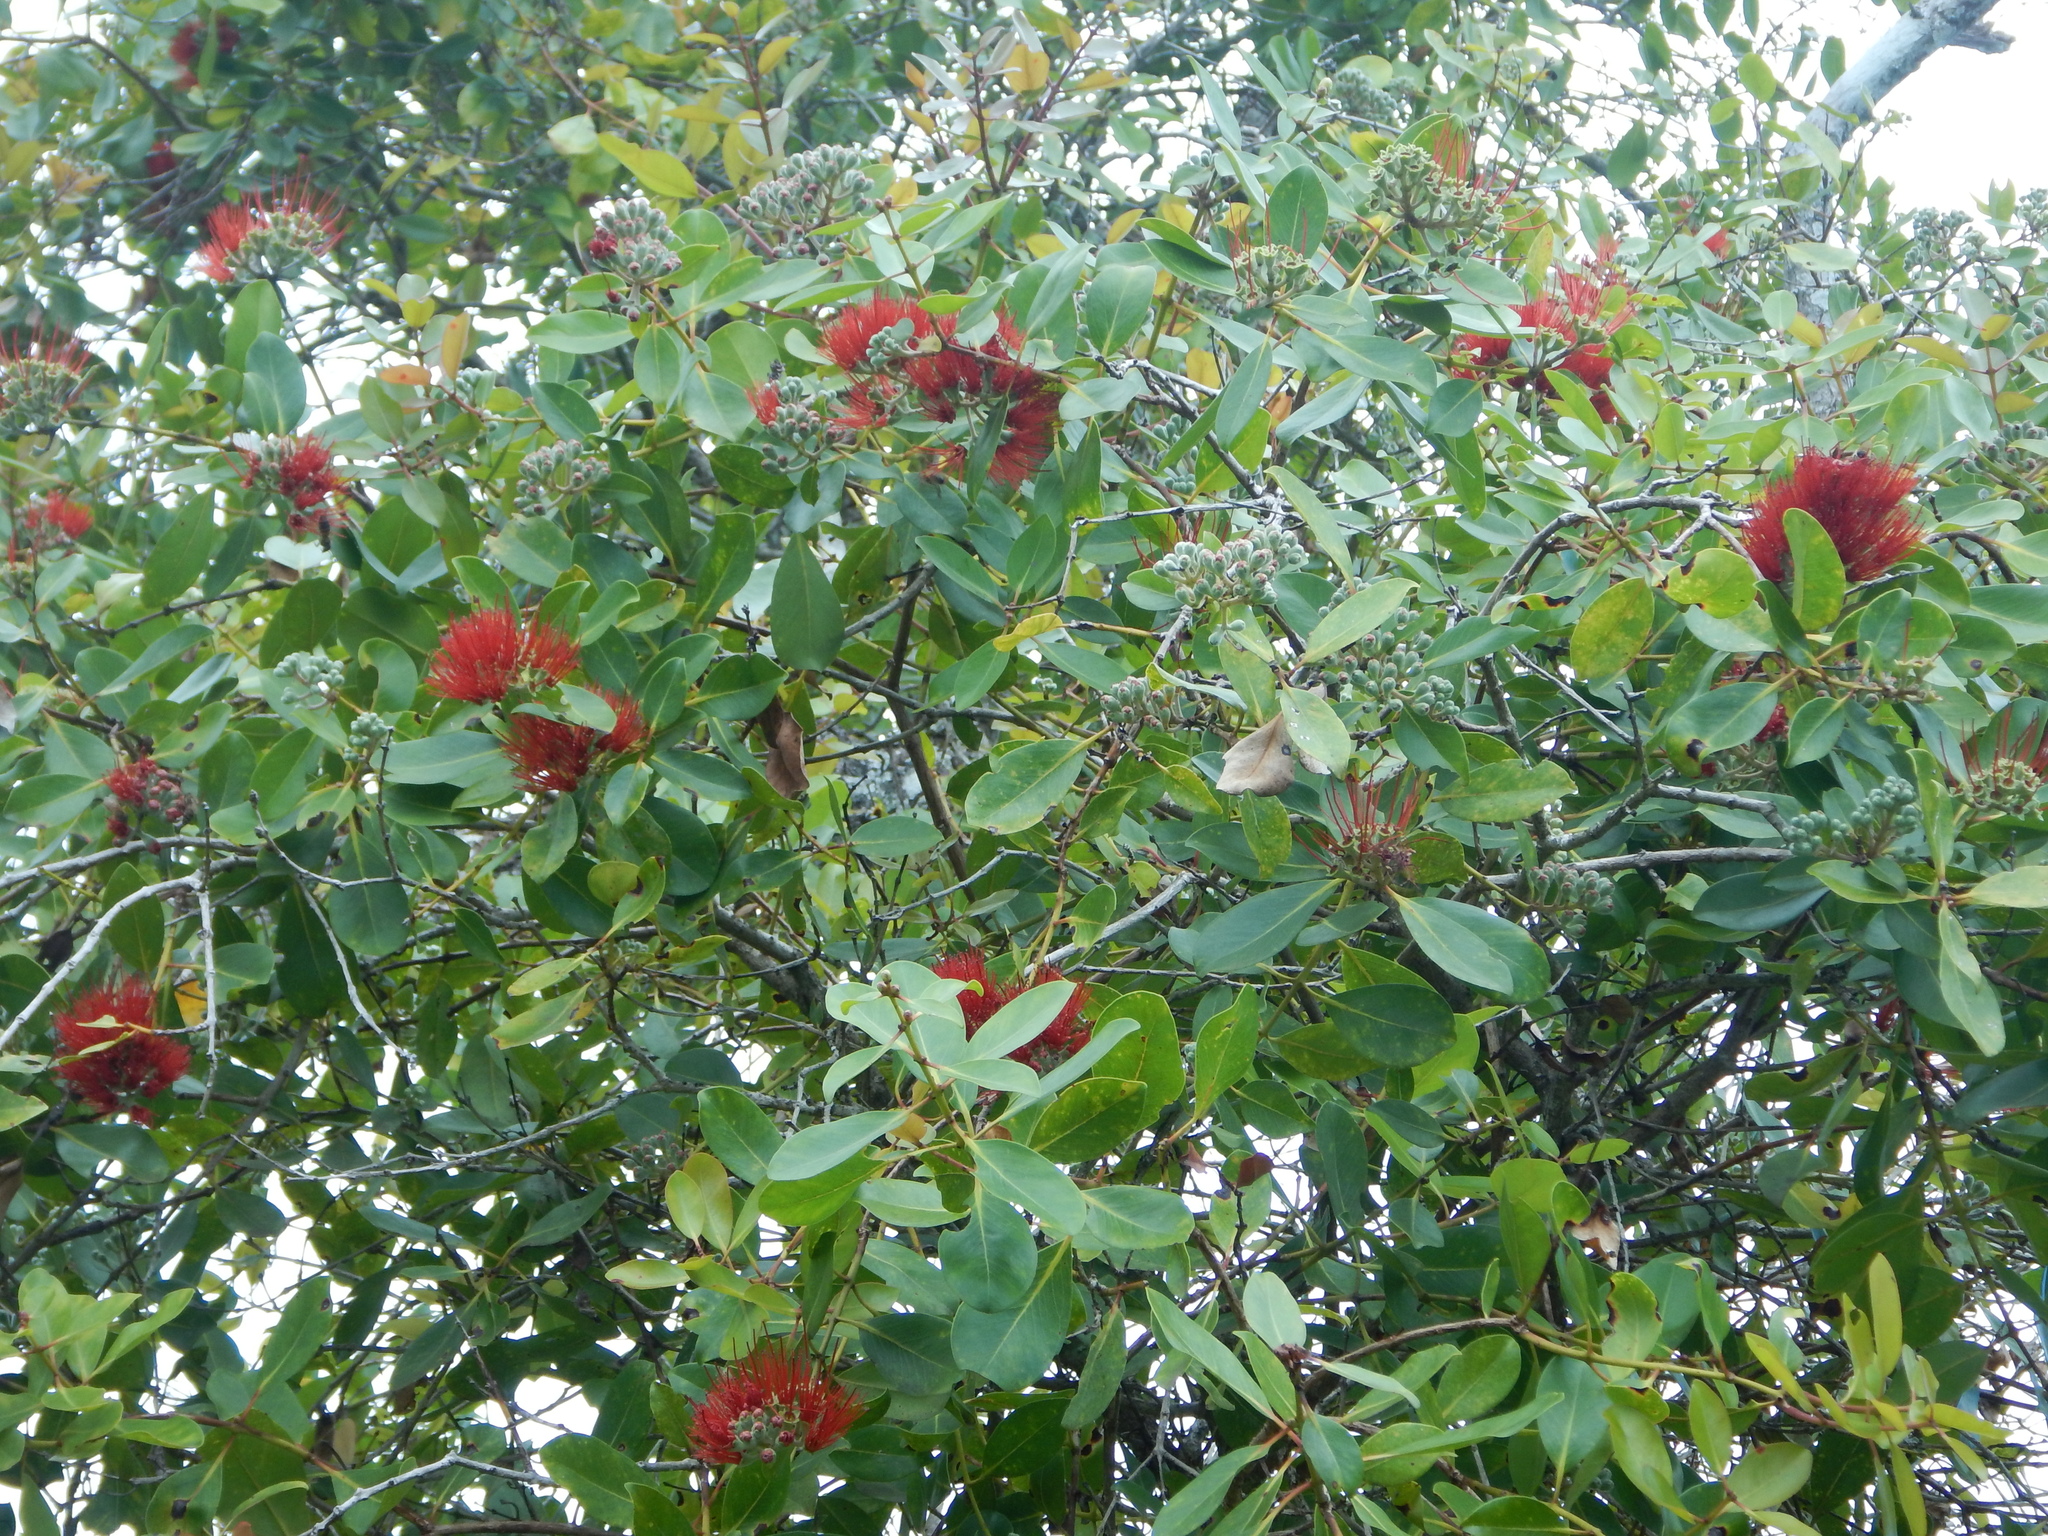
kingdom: Plantae
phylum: Tracheophyta
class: Magnoliopsida
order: Myrtales
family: Myrtaceae
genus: Metrosideros
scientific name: Metrosideros polymorpha
